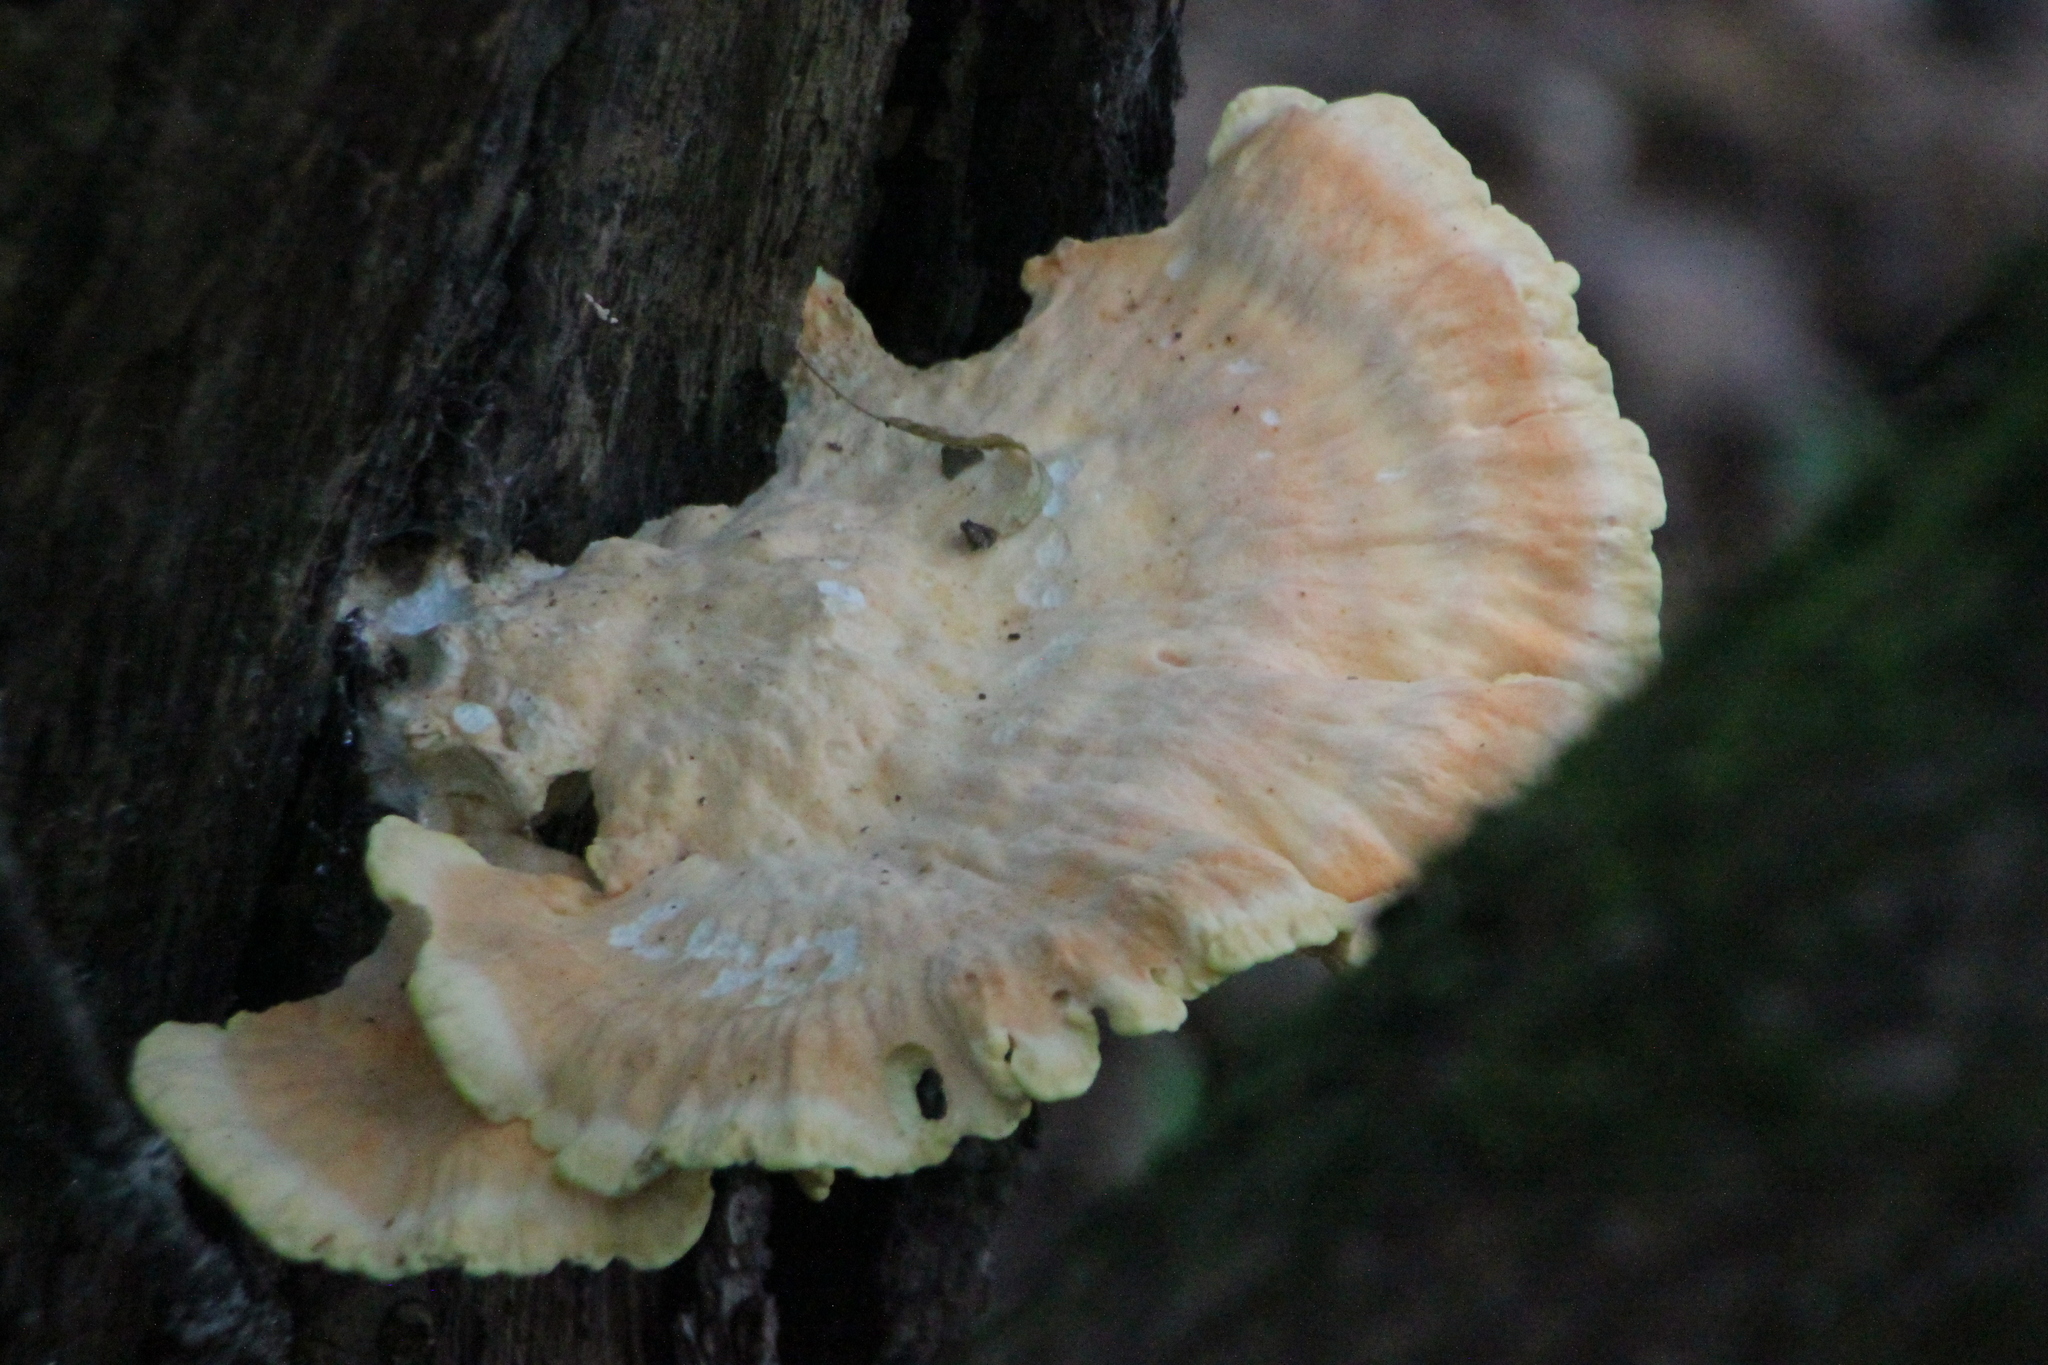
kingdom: Fungi
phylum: Basidiomycota
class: Agaricomycetes
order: Polyporales
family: Laetiporaceae
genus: Laetiporus
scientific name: Laetiporus sulphureus
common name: Chicken of the woods
